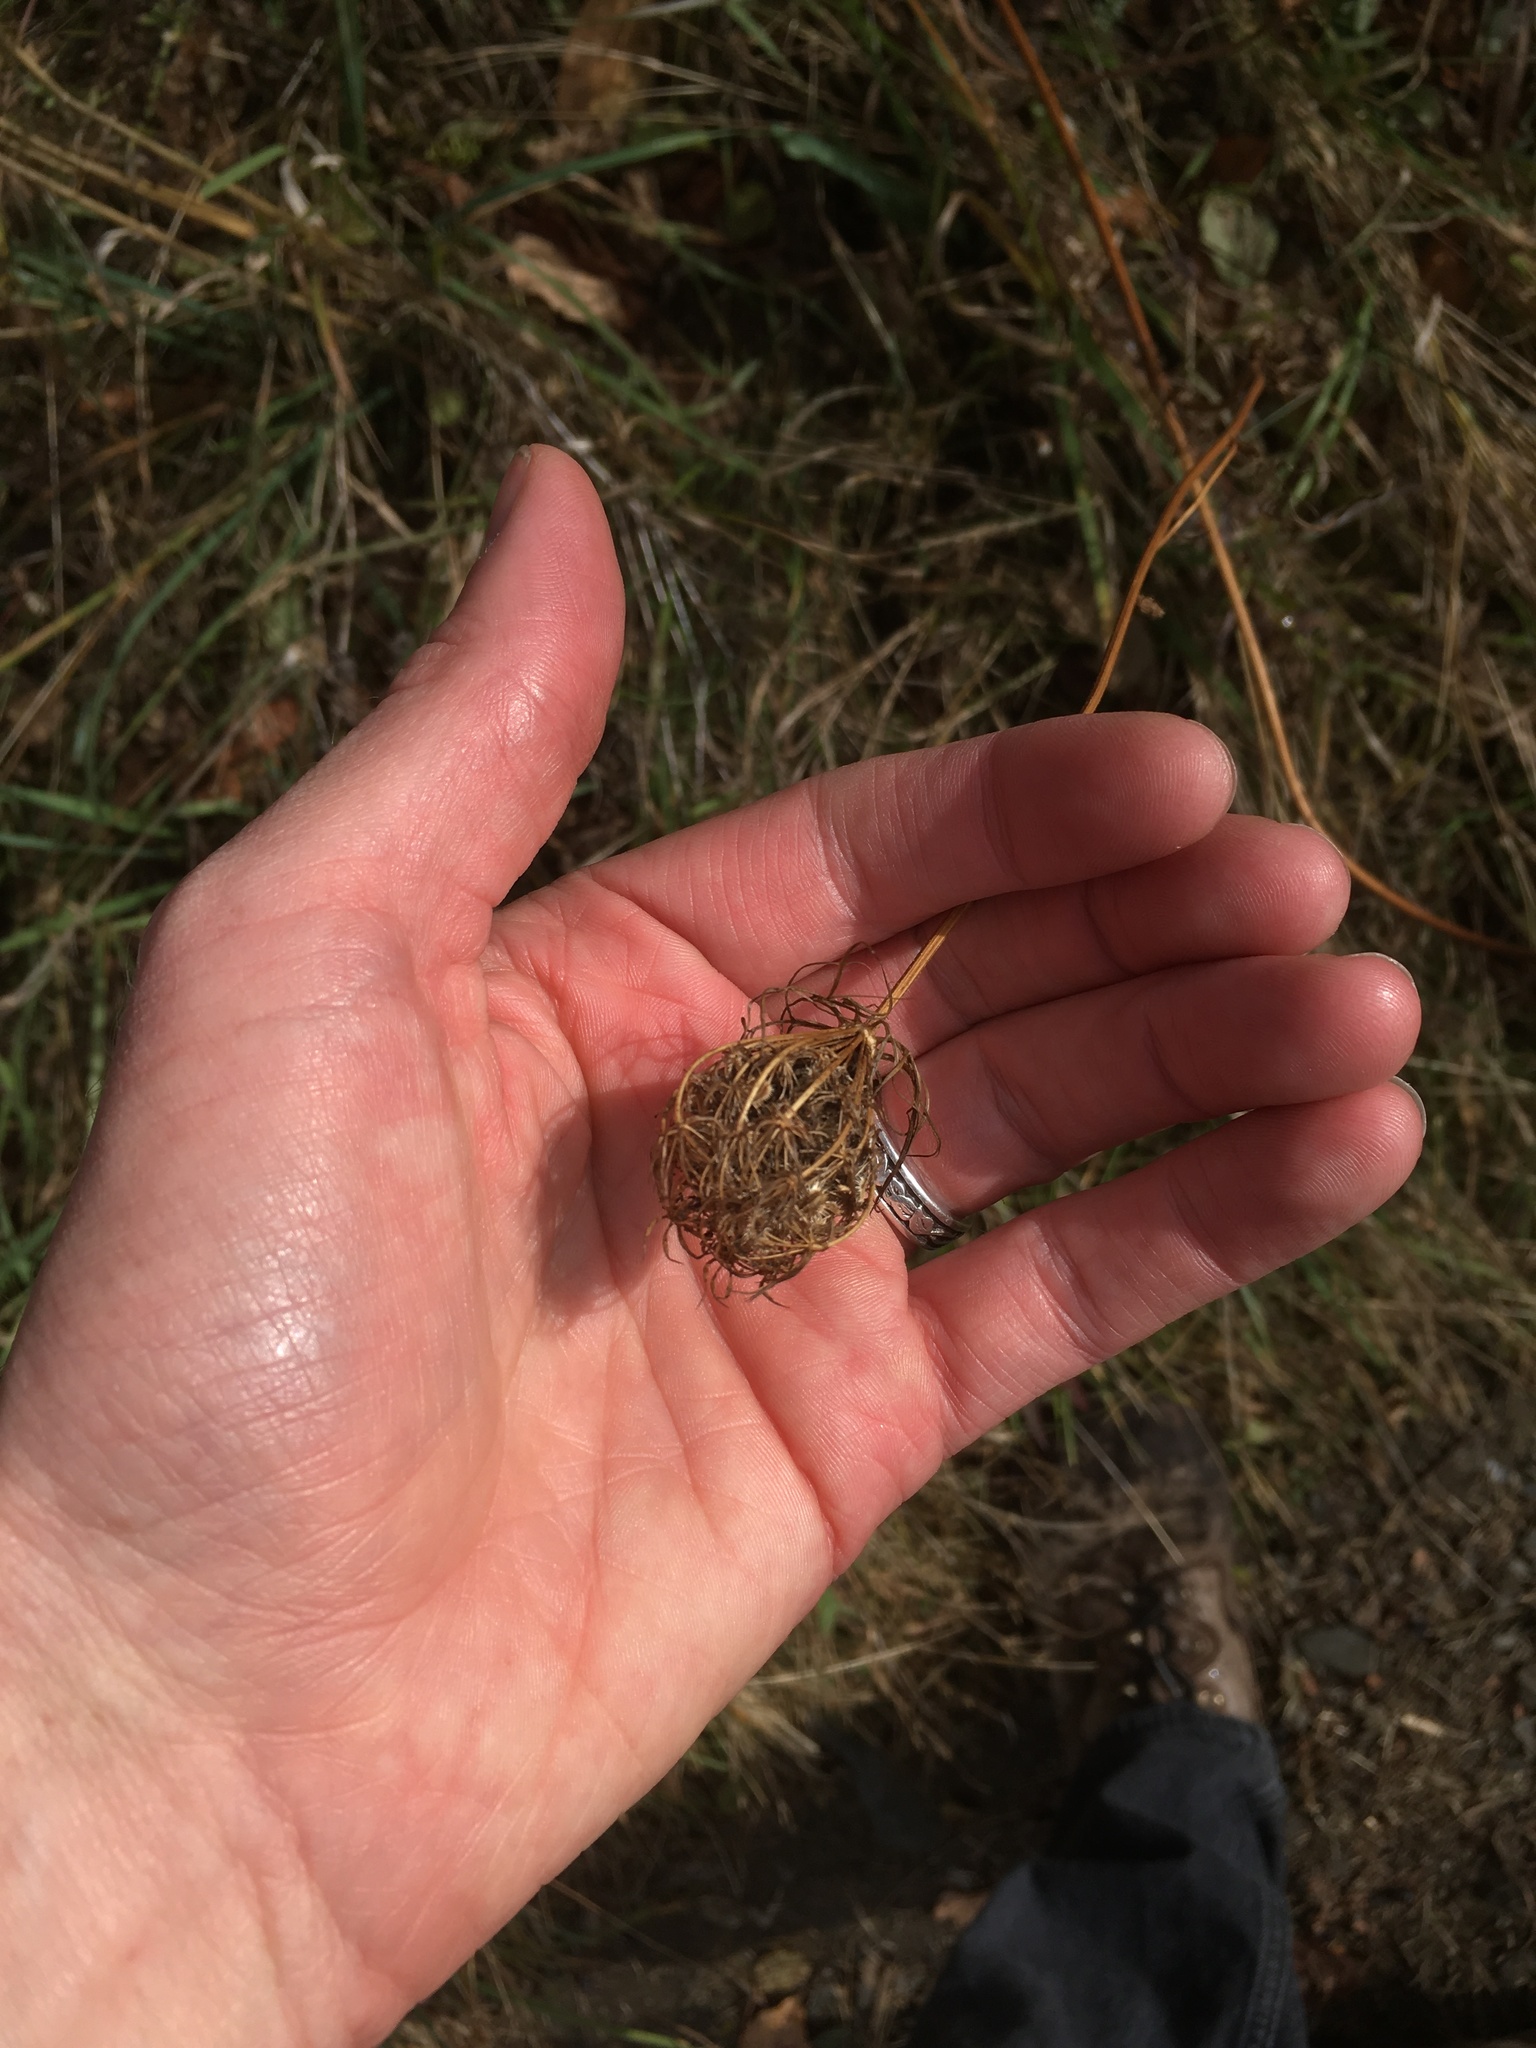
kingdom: Plantae
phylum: Tracheophyta
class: Magnoliopsida
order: Apiales
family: Apiaceae
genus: Daucus
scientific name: Daucus carota
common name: Wild carrot
